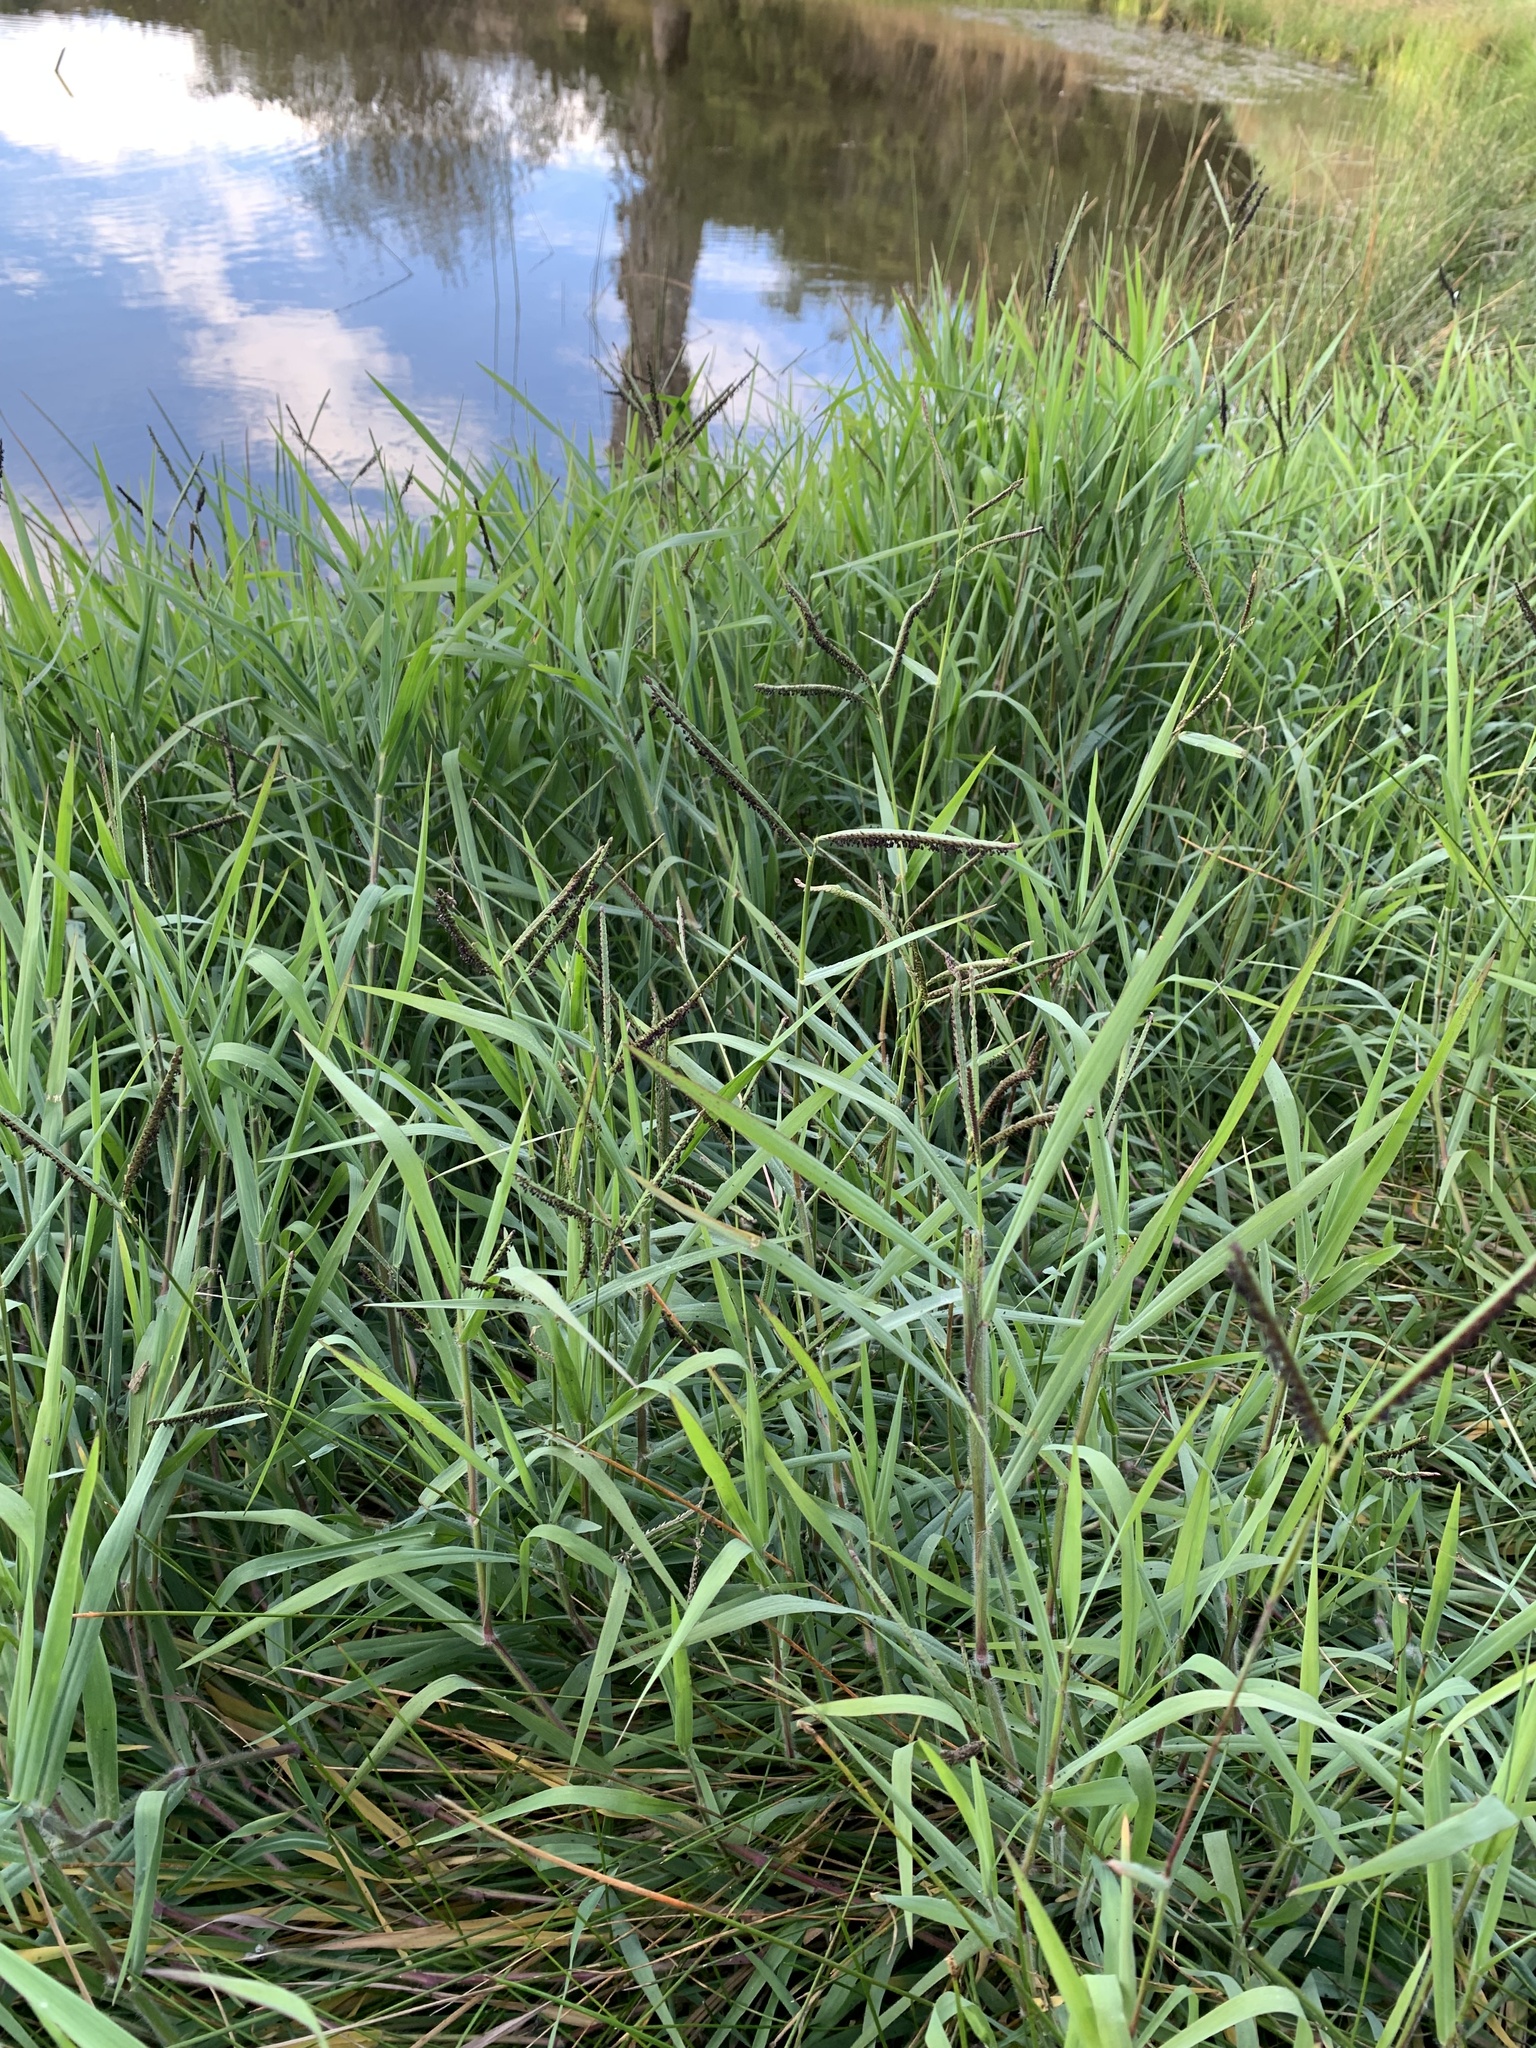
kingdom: Plantae
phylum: Tracheophyta
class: Liliopsida
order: Poales
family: Poaceae
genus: Paspalum
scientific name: Paspalum dilatatum
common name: Dallisgrass
